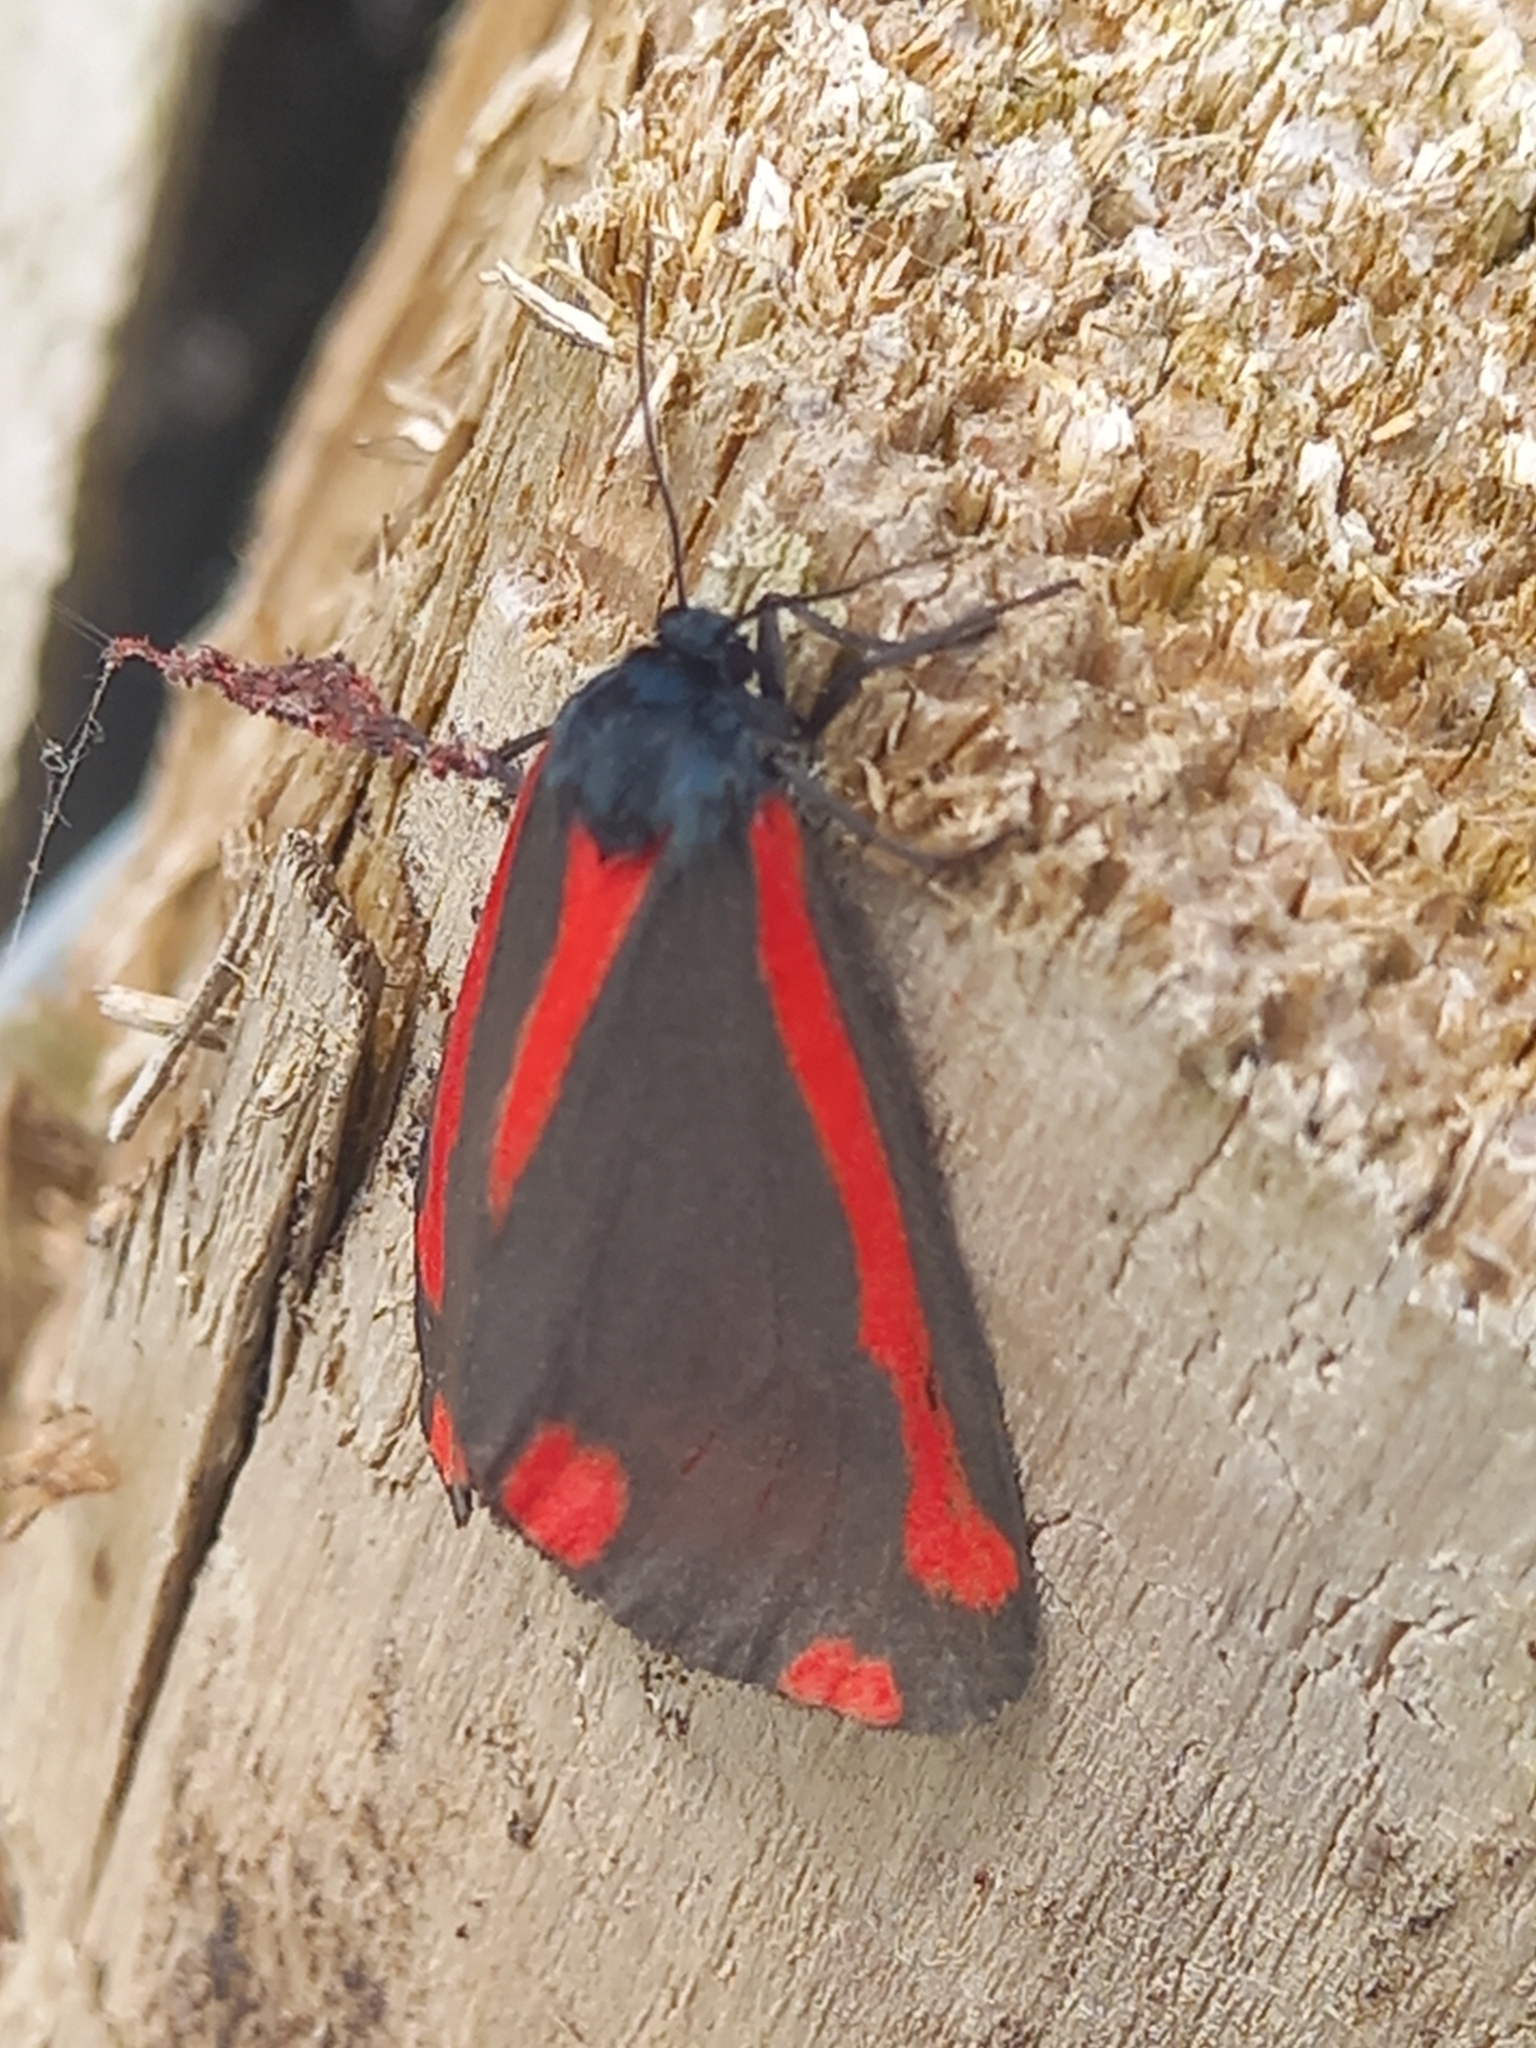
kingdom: Animalia
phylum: Arthropoda
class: Insecta
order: Lepidoptera
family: Erebidae
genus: Tyria
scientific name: Tyria jacobaeae
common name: Cinnabar
